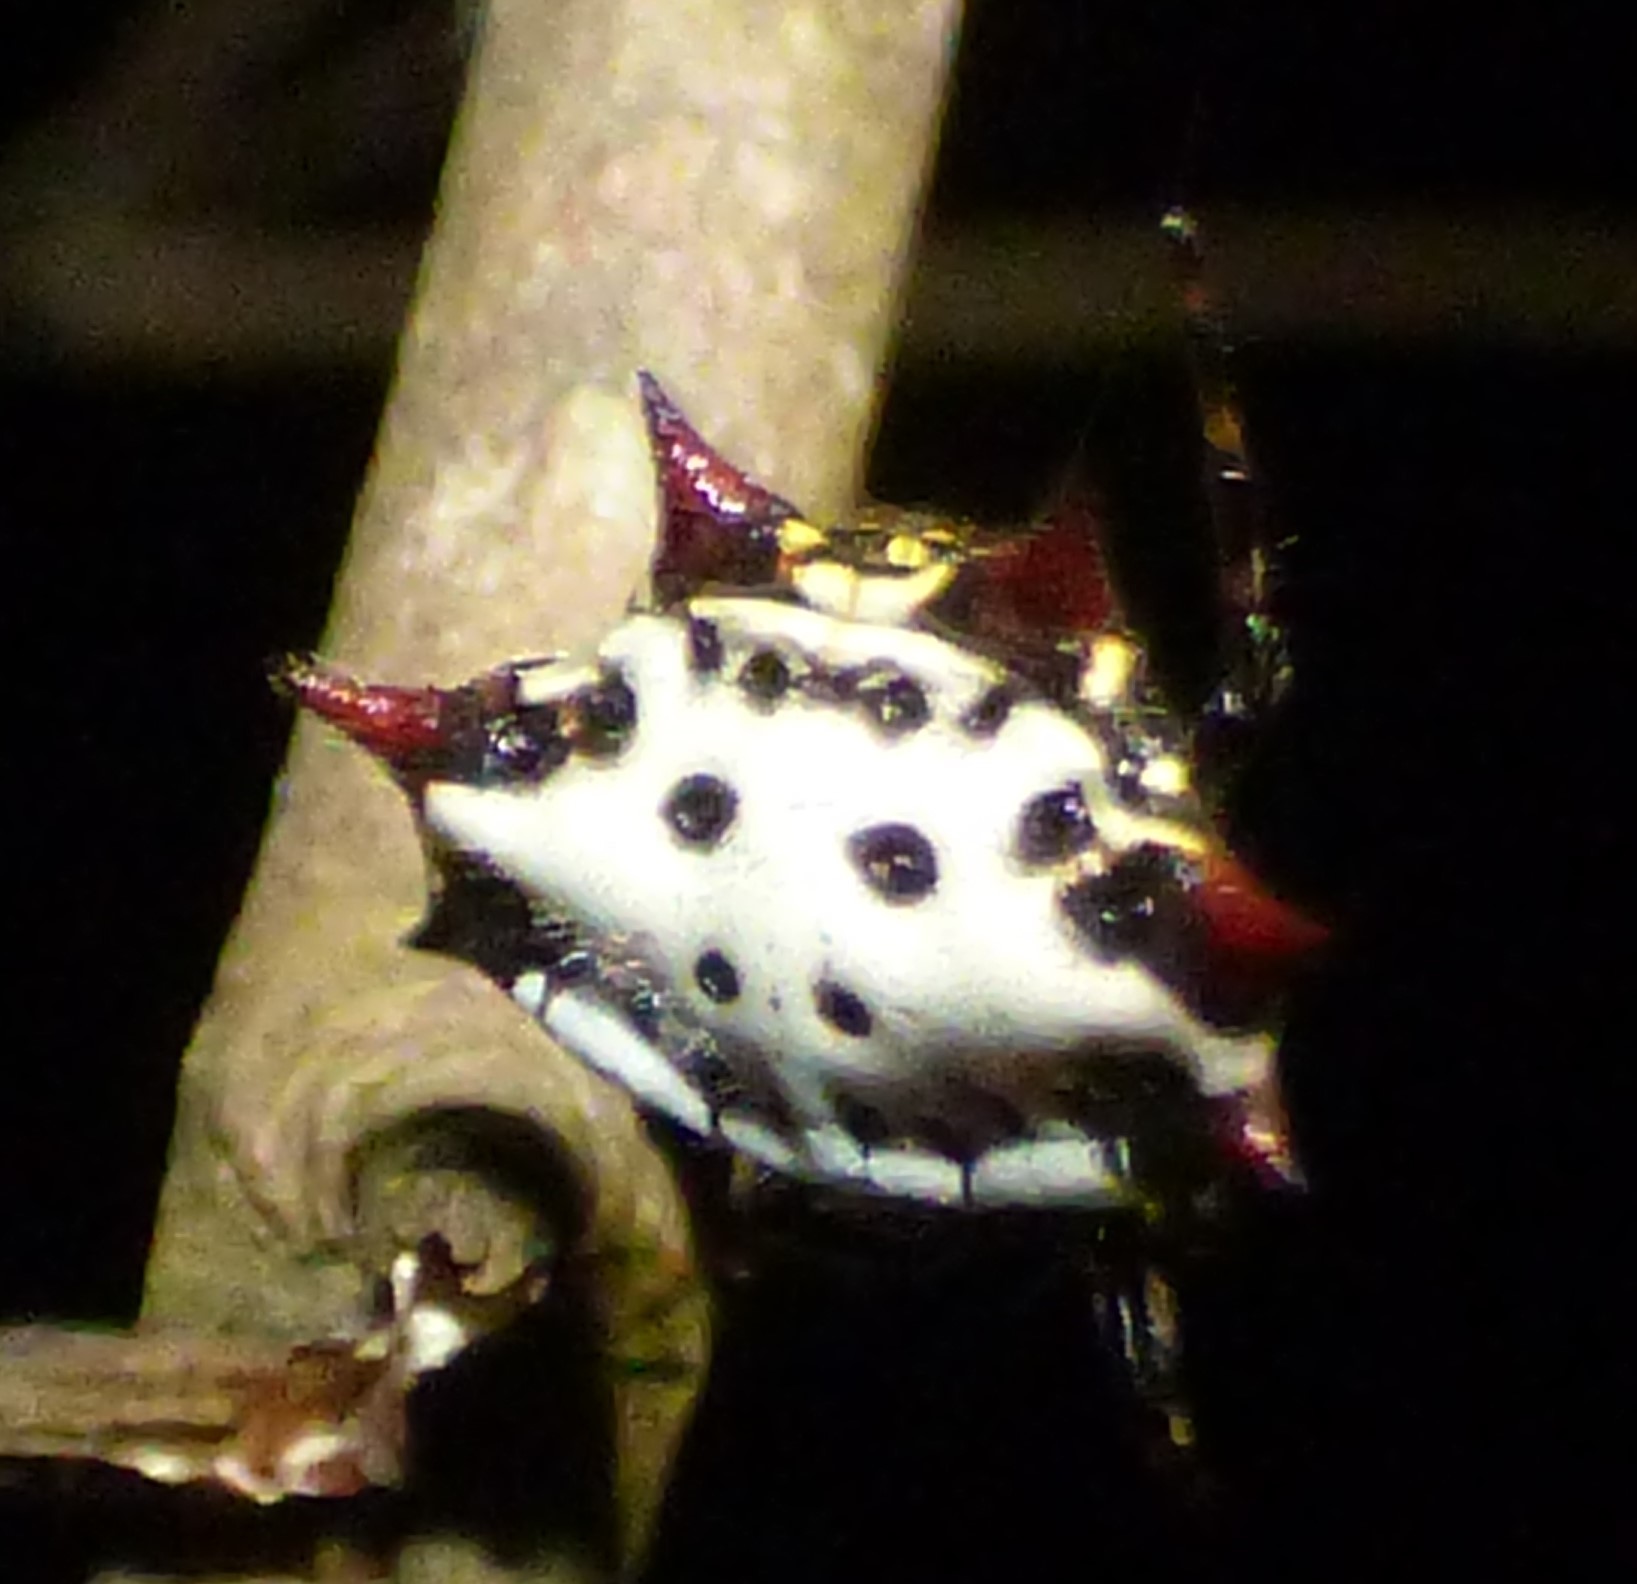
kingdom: Animalia
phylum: Arthropoda
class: Arachnida
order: Araneae
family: Araneidae
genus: Gasteracantha
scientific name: Gasteracantha cancriformis
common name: Orb weavers
